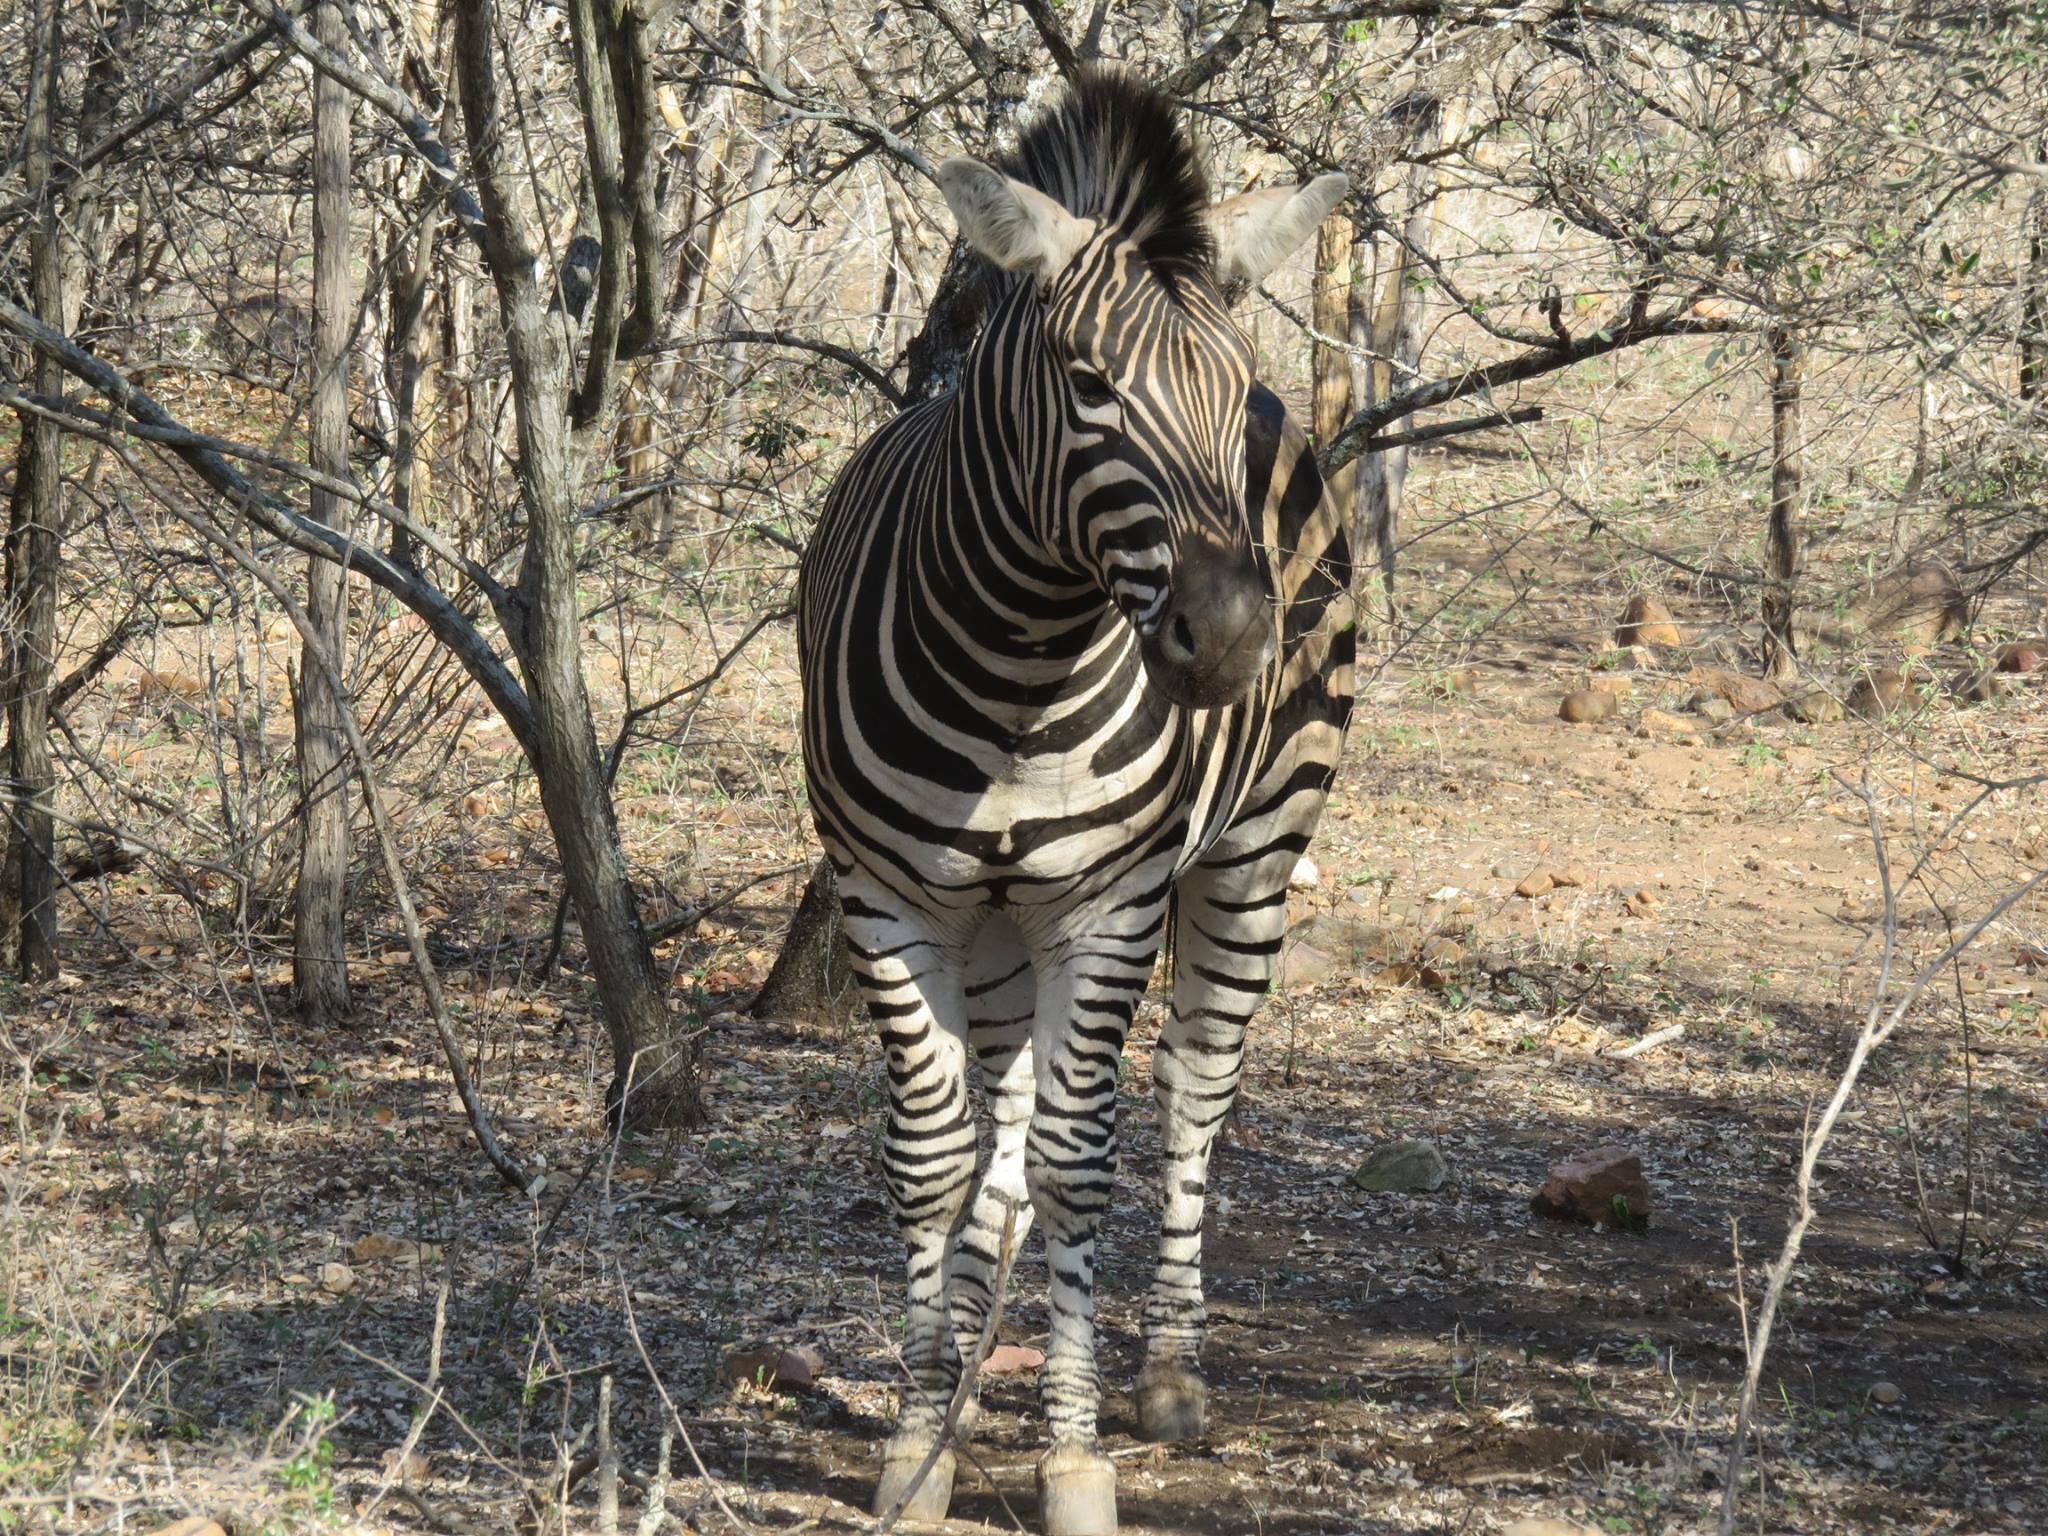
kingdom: Animalia
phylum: Chordata
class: Mammalia
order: Perissodactyla
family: Equidae
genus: Equus
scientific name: Equus quagga
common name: Plains zebra
